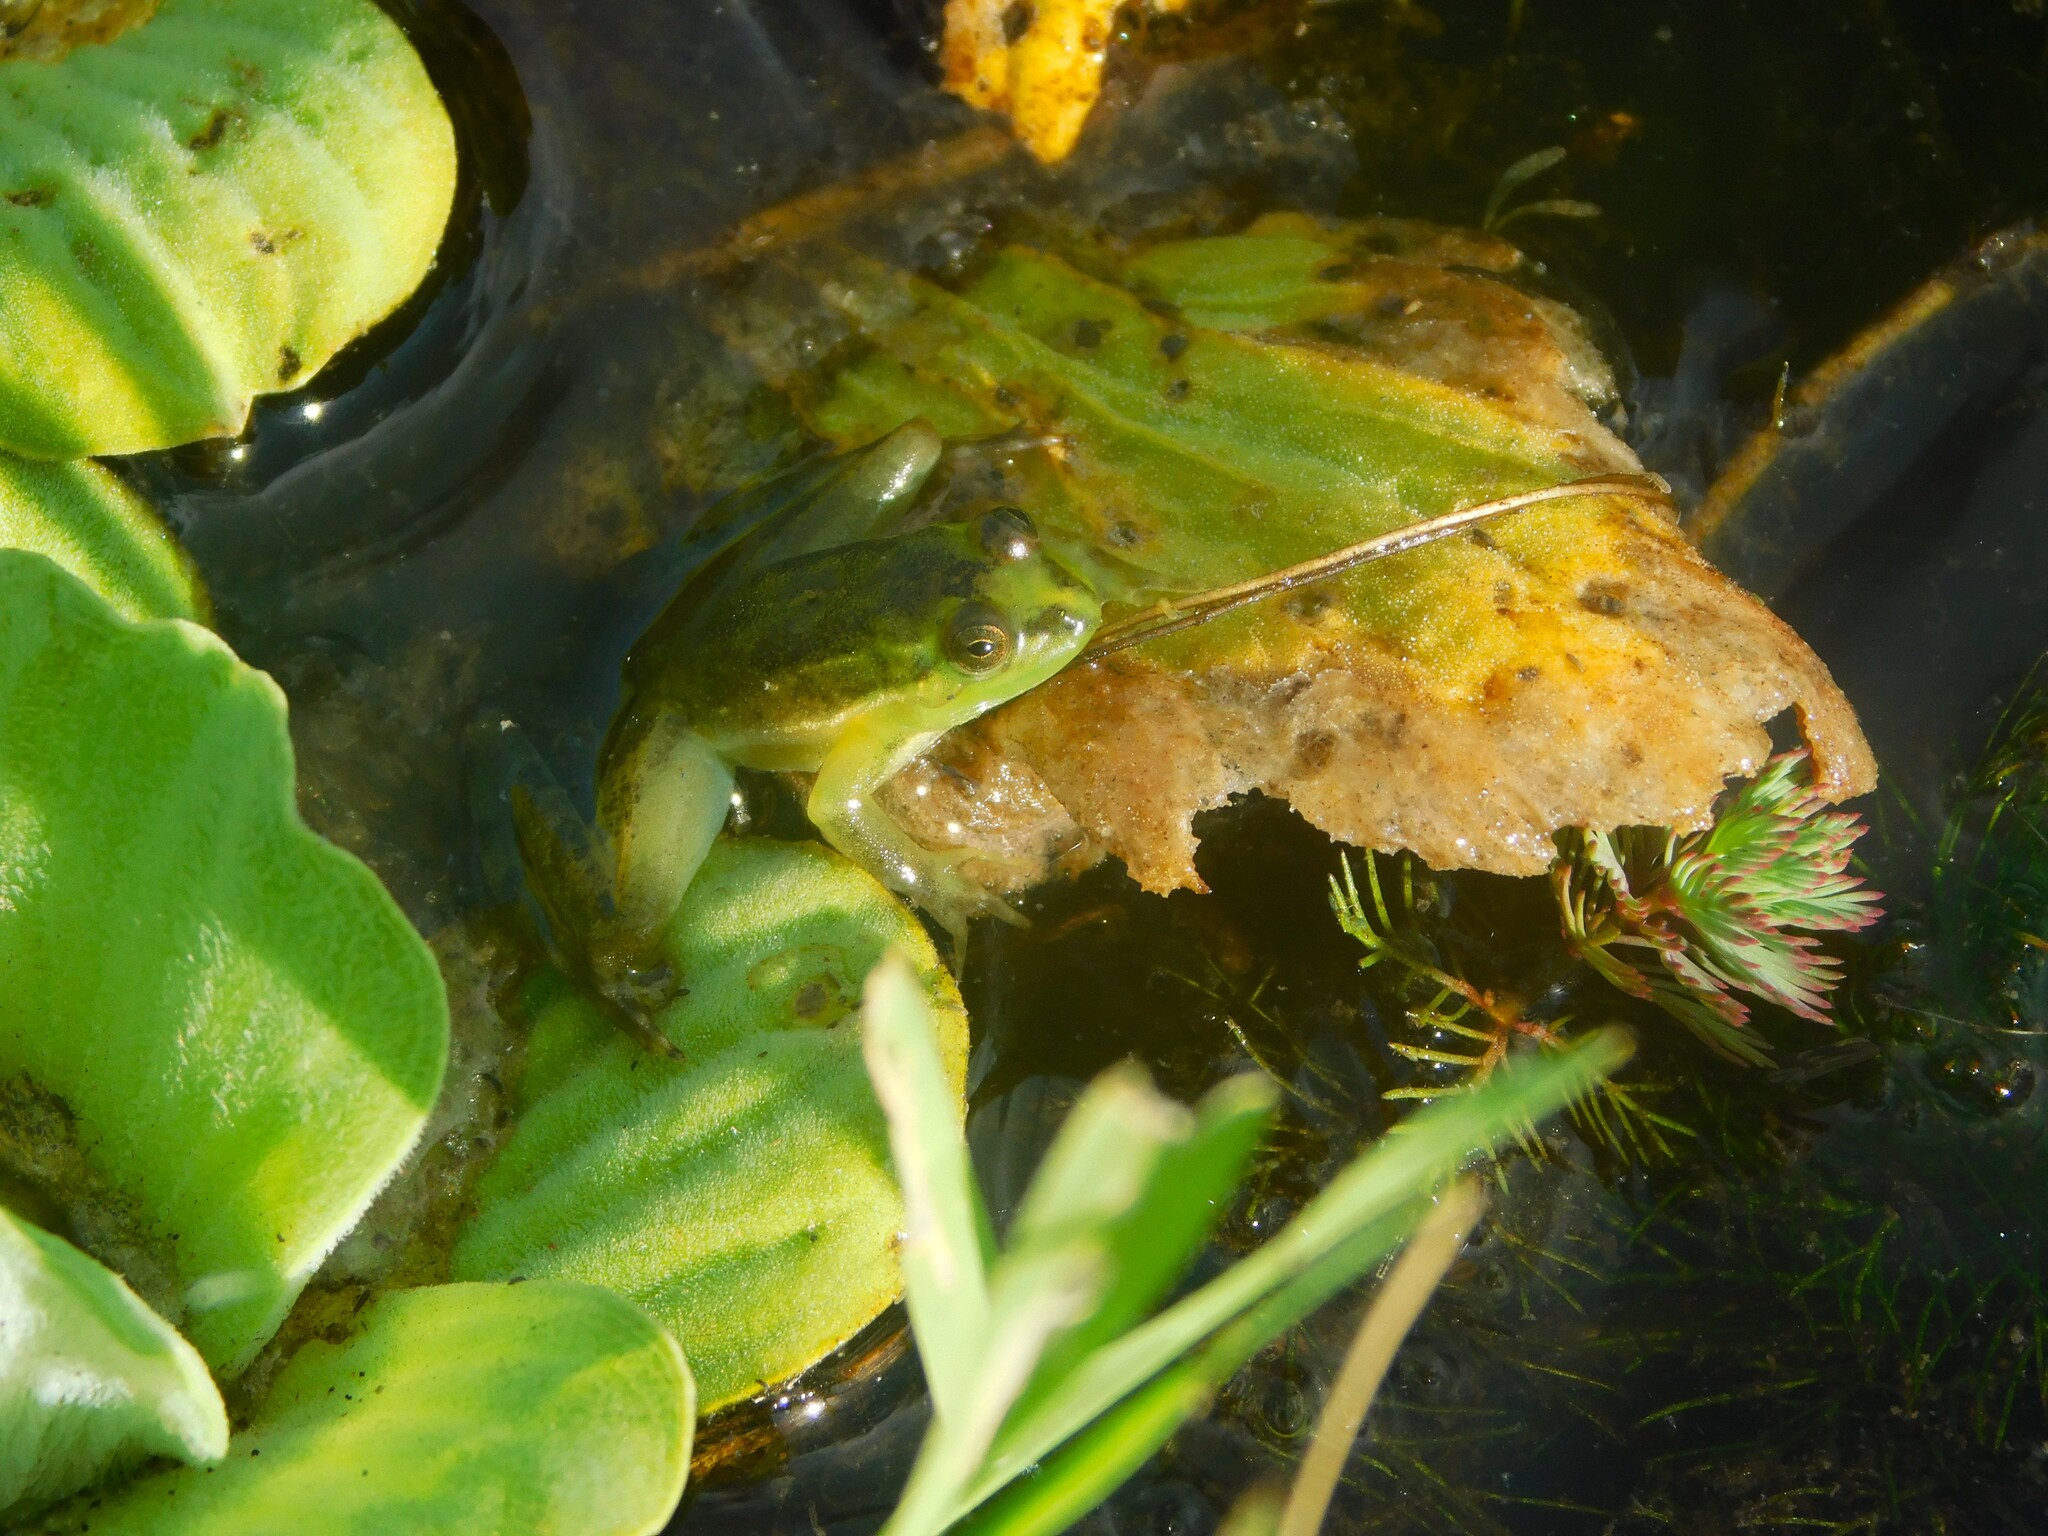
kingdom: Animalia
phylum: Chordata
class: Amphibia
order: Anura
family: Hylidae
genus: Lysapsus
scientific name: Lysapsus limellum
